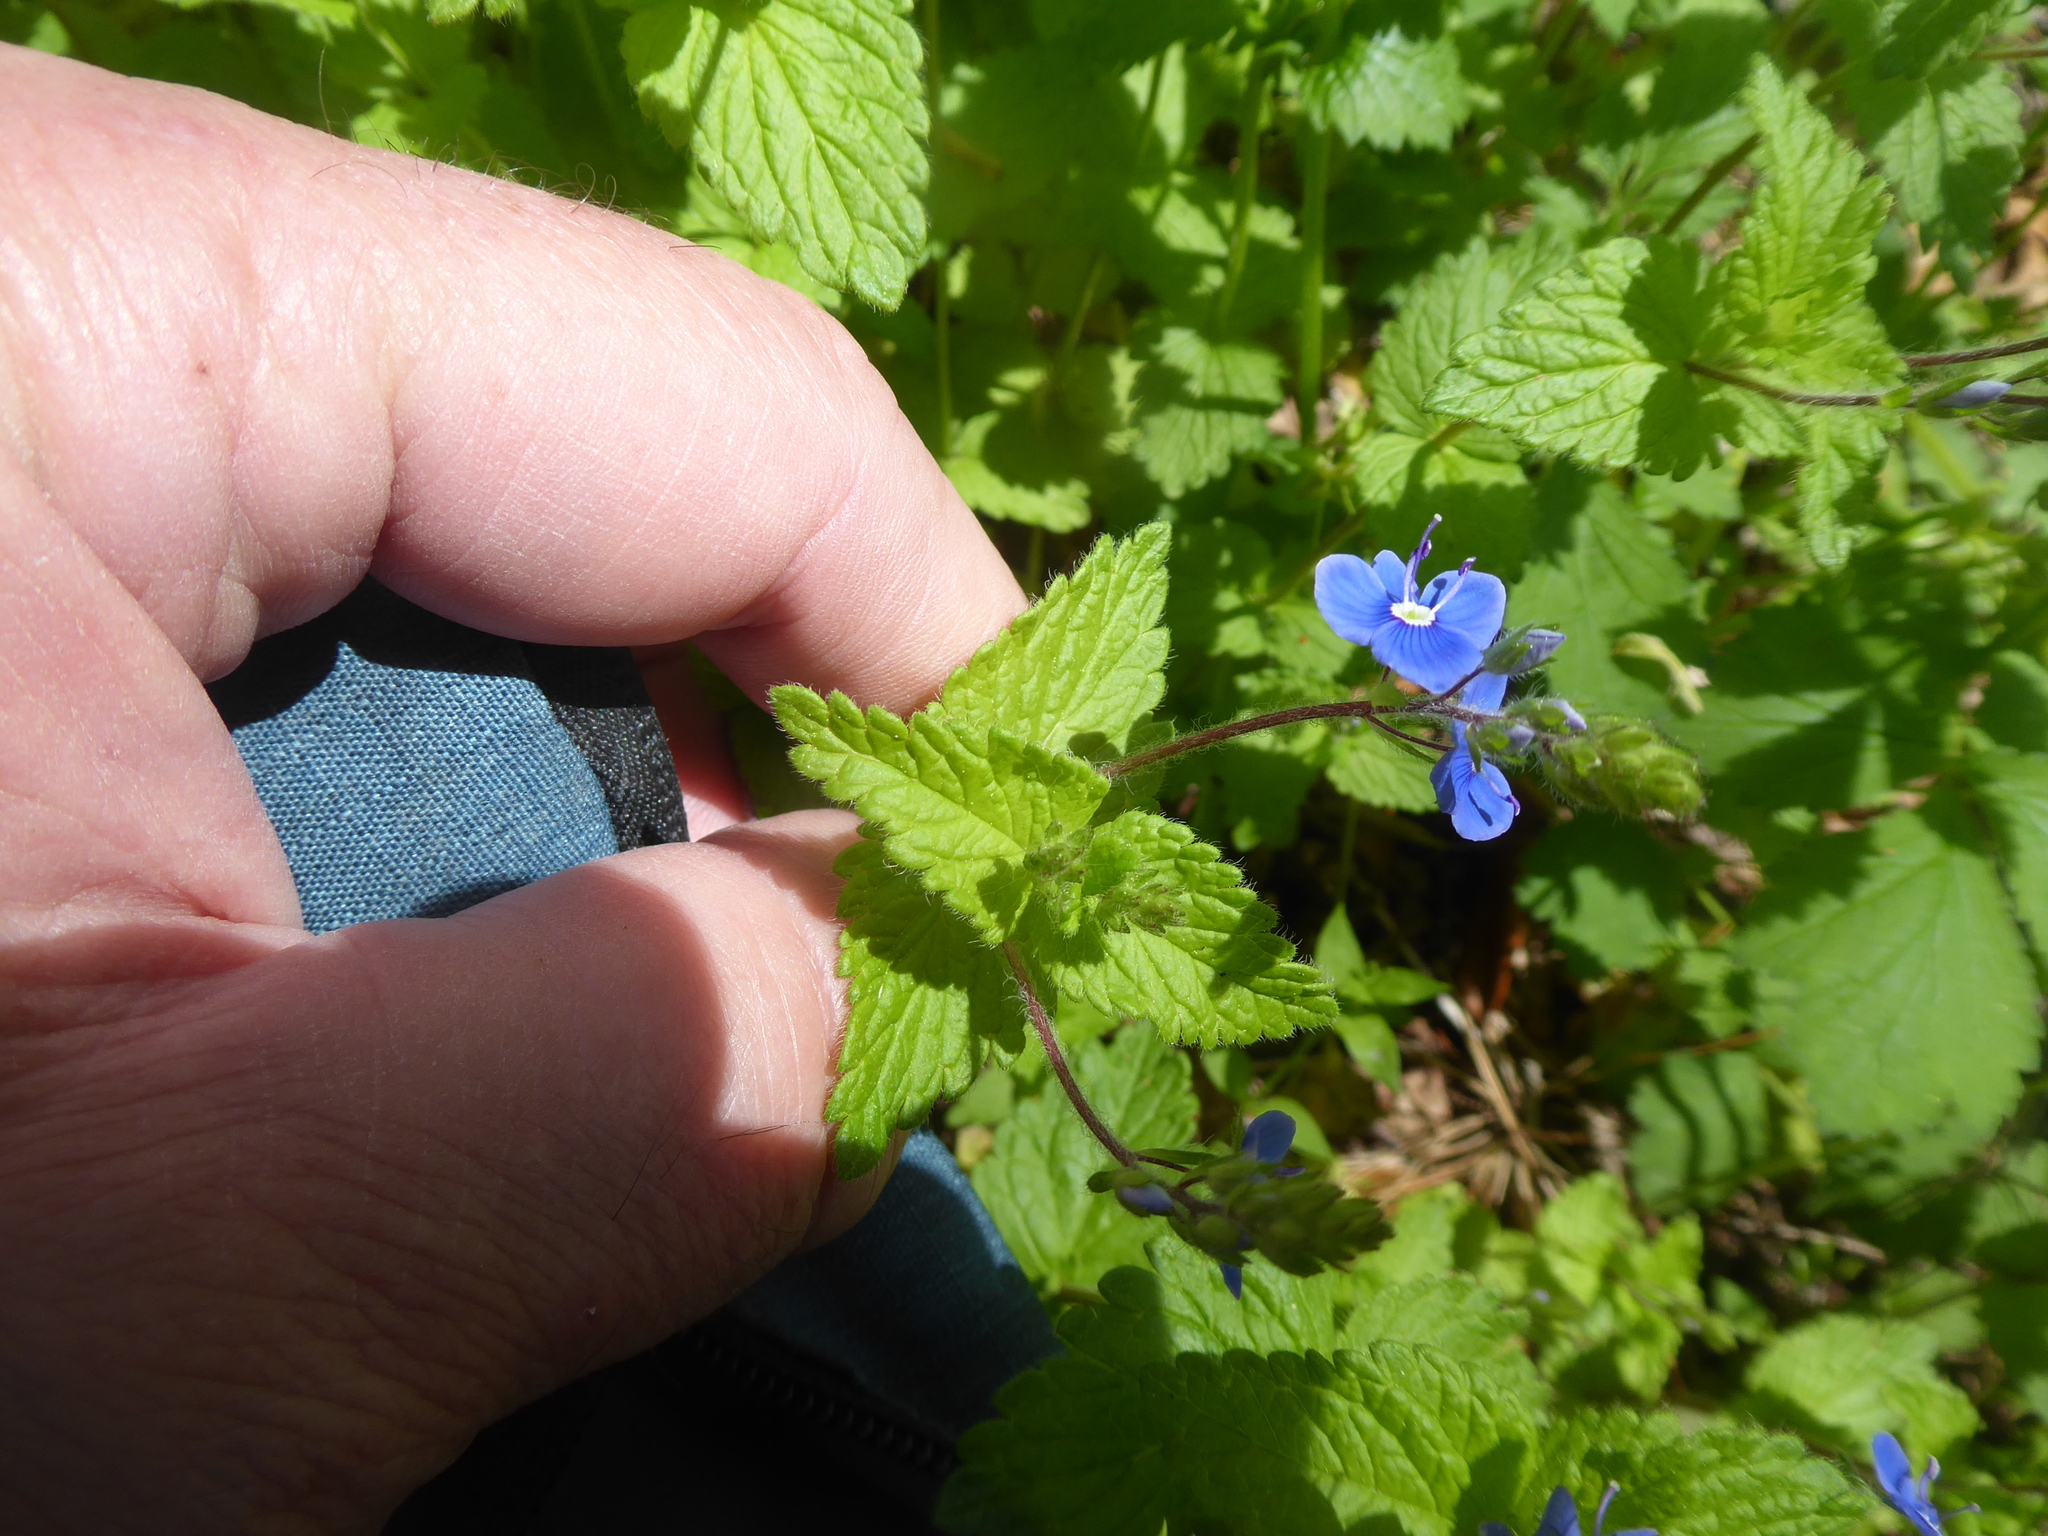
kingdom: Plantae
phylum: Tracheophyta
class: Magnoliopsida
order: Lamiales
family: Plantaginaceae
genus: Veronica
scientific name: Veronica chamaedrys
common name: Germander speedwell
